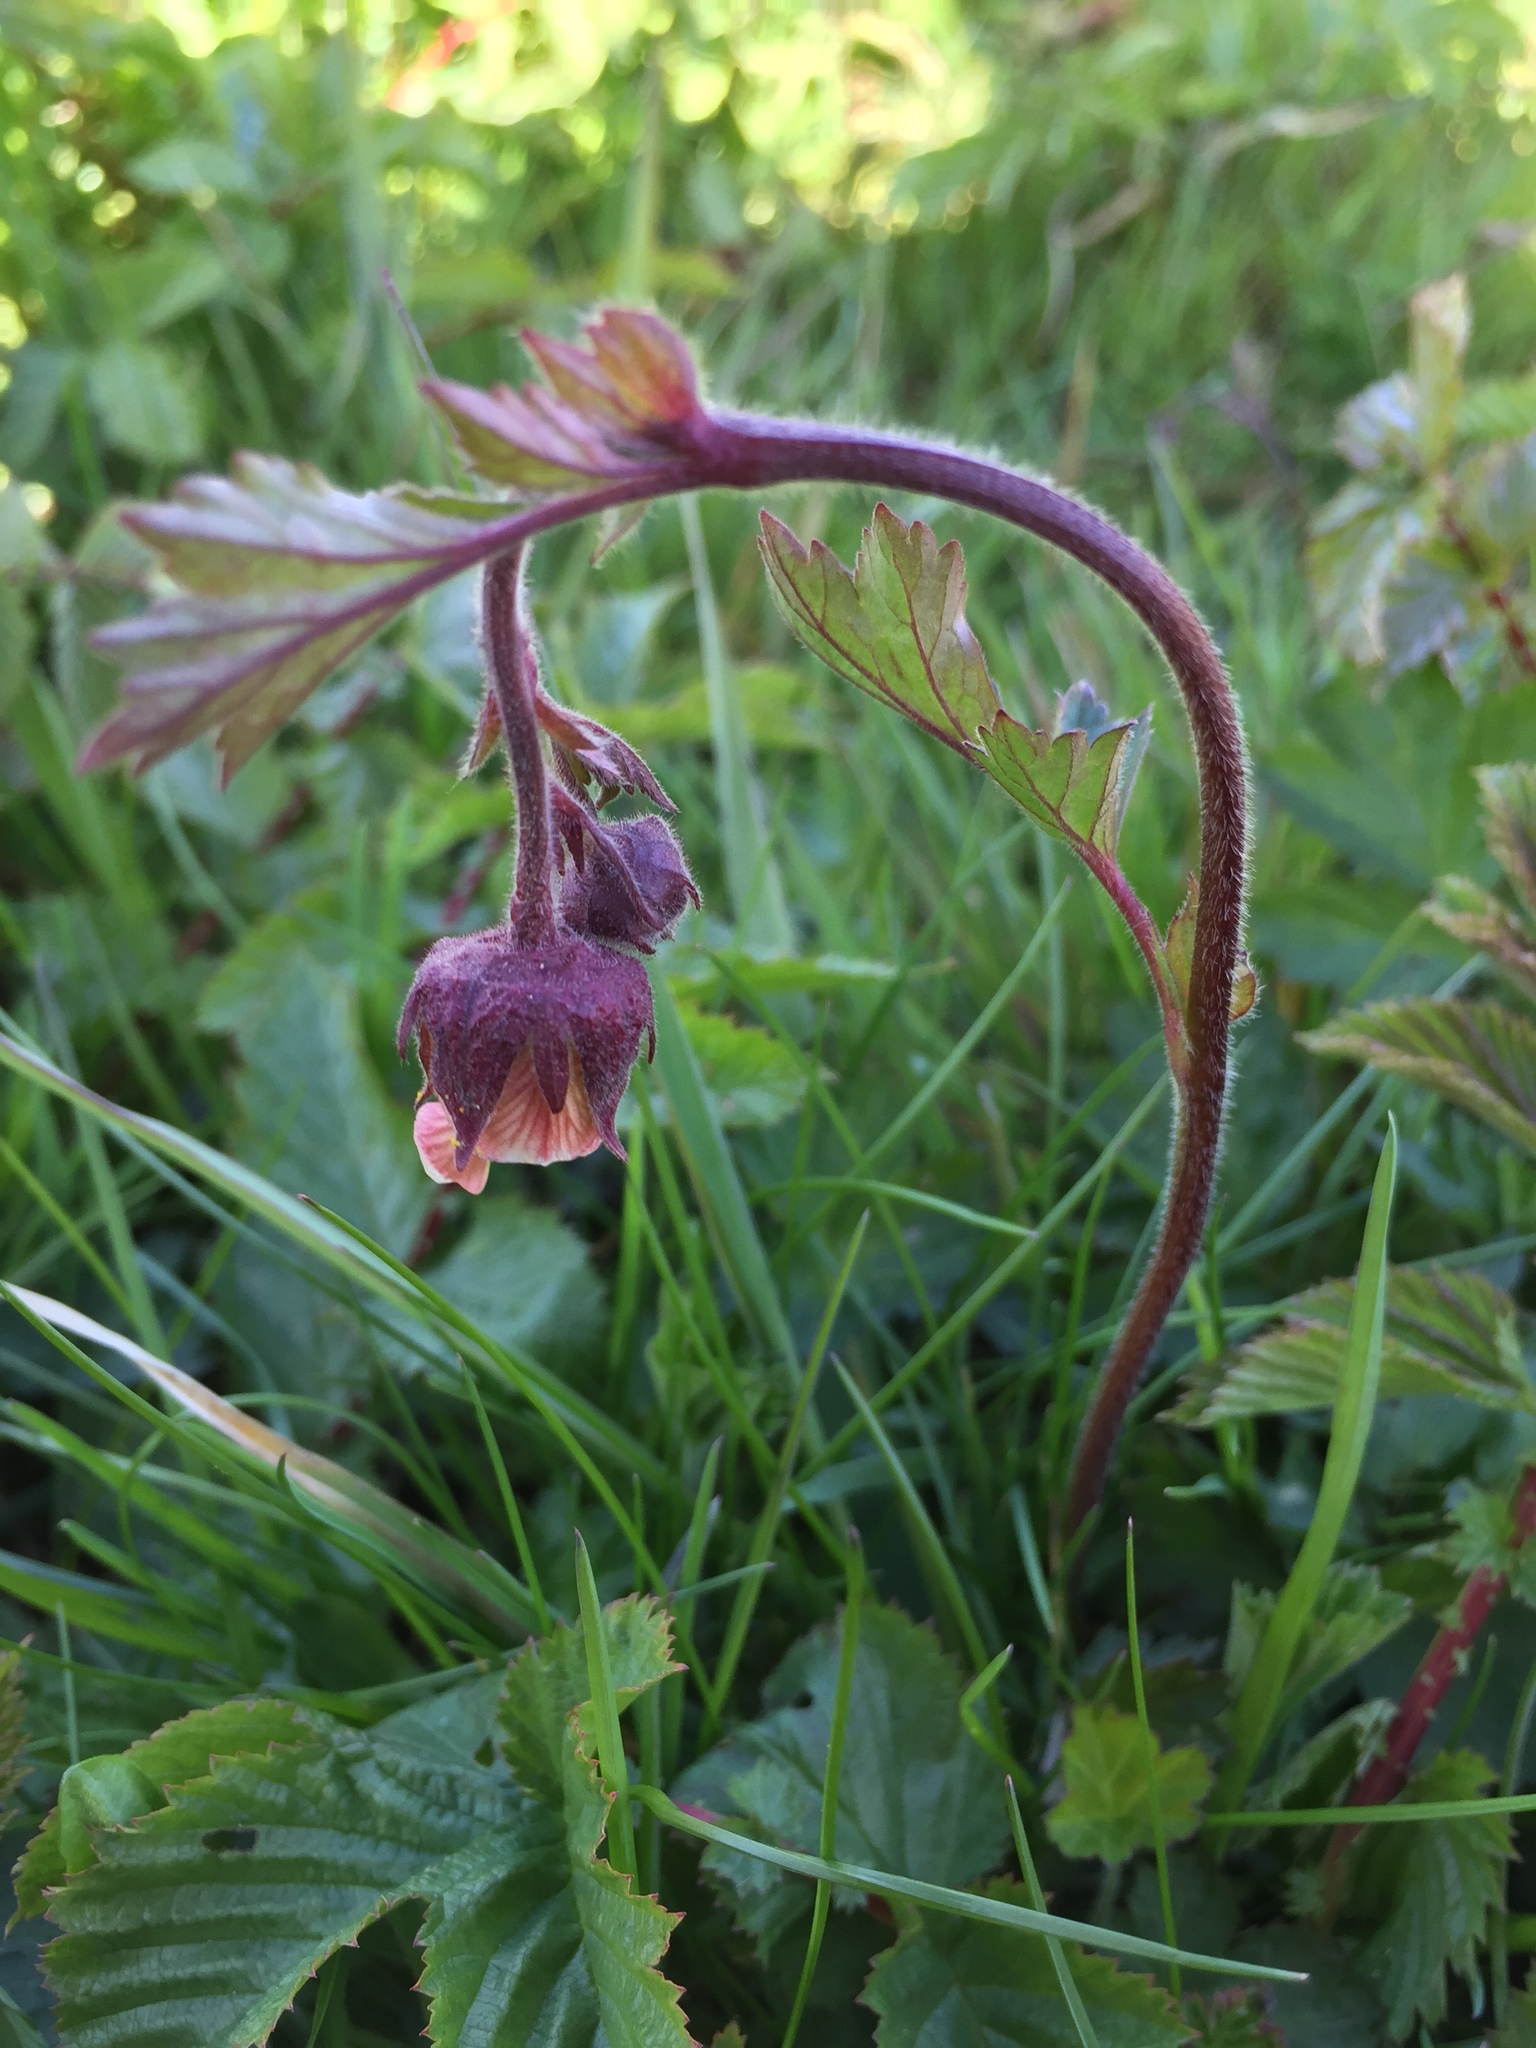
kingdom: Plantae
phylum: Tracheophyta
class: Magnoliopsida
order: Rosales
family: Rosaceae
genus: Geum
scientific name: Geum rivale
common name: Water avens
